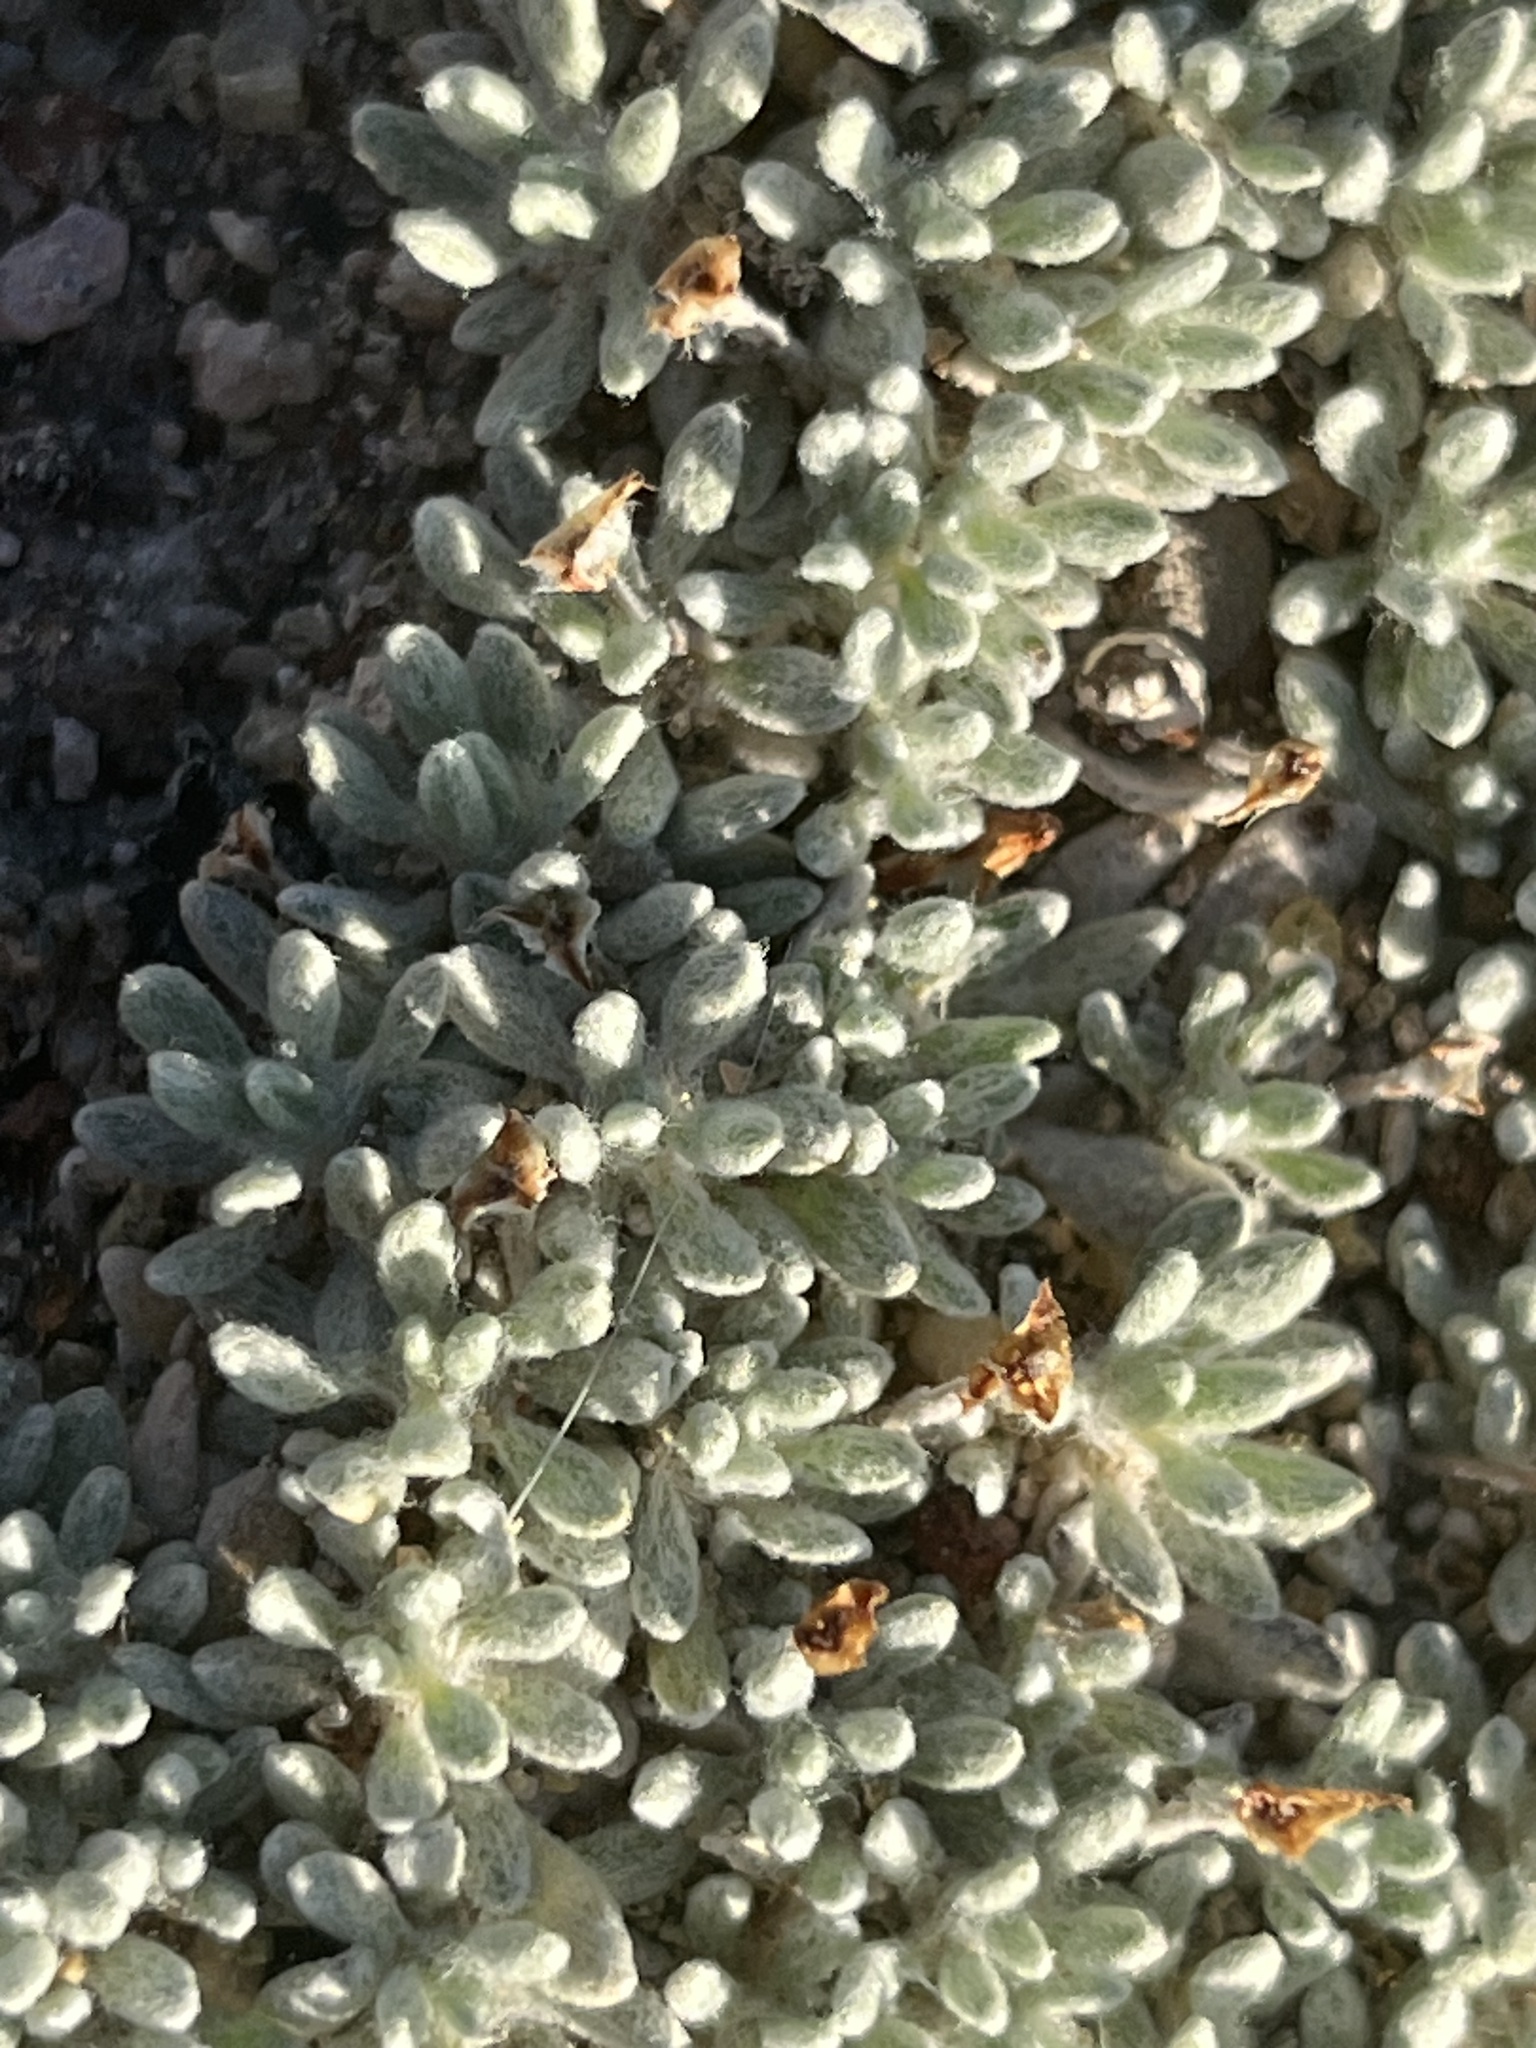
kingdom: Plantae
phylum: Tracheophyta
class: Magnoliopsida
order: Caryophyllales
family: Polygonaceae
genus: Eriogonum
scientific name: Eriogonum caespitosum
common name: Matted wild buckwheat
